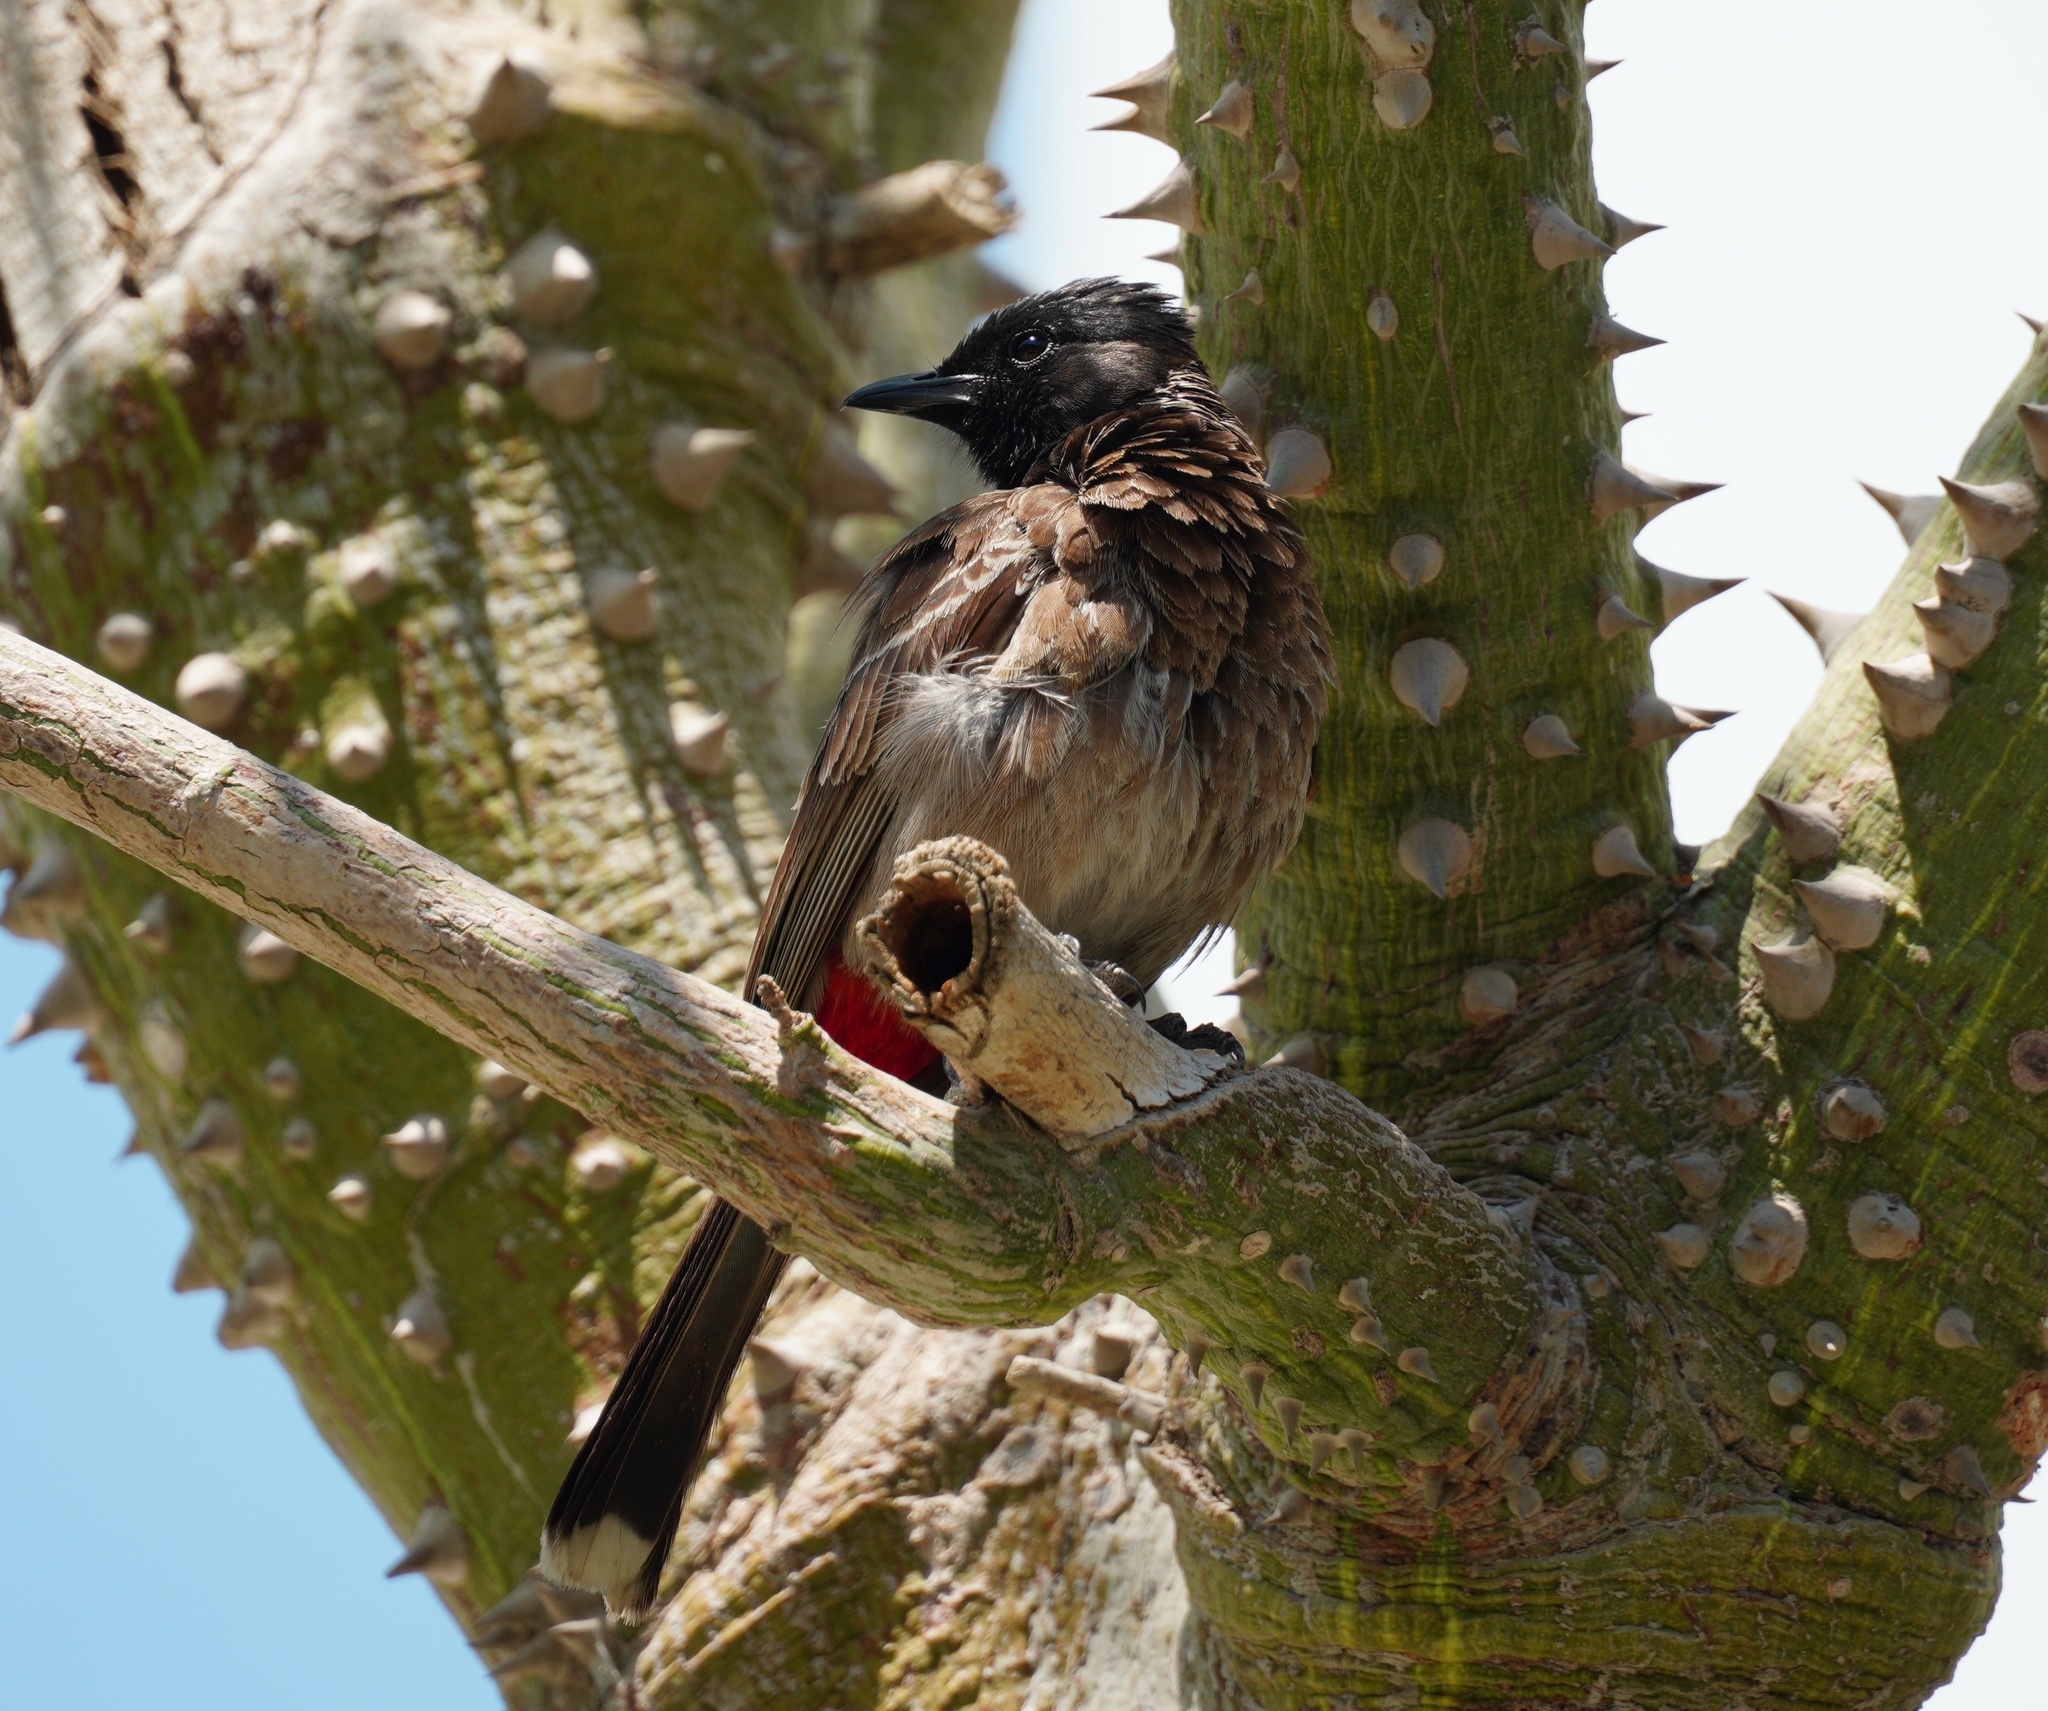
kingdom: Animalia
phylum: Chordata
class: Aves
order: Passeriformes
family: Pycnonotidae
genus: Pycnonotus
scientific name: Pycnonotus cafer
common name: Red-vented bulbul
